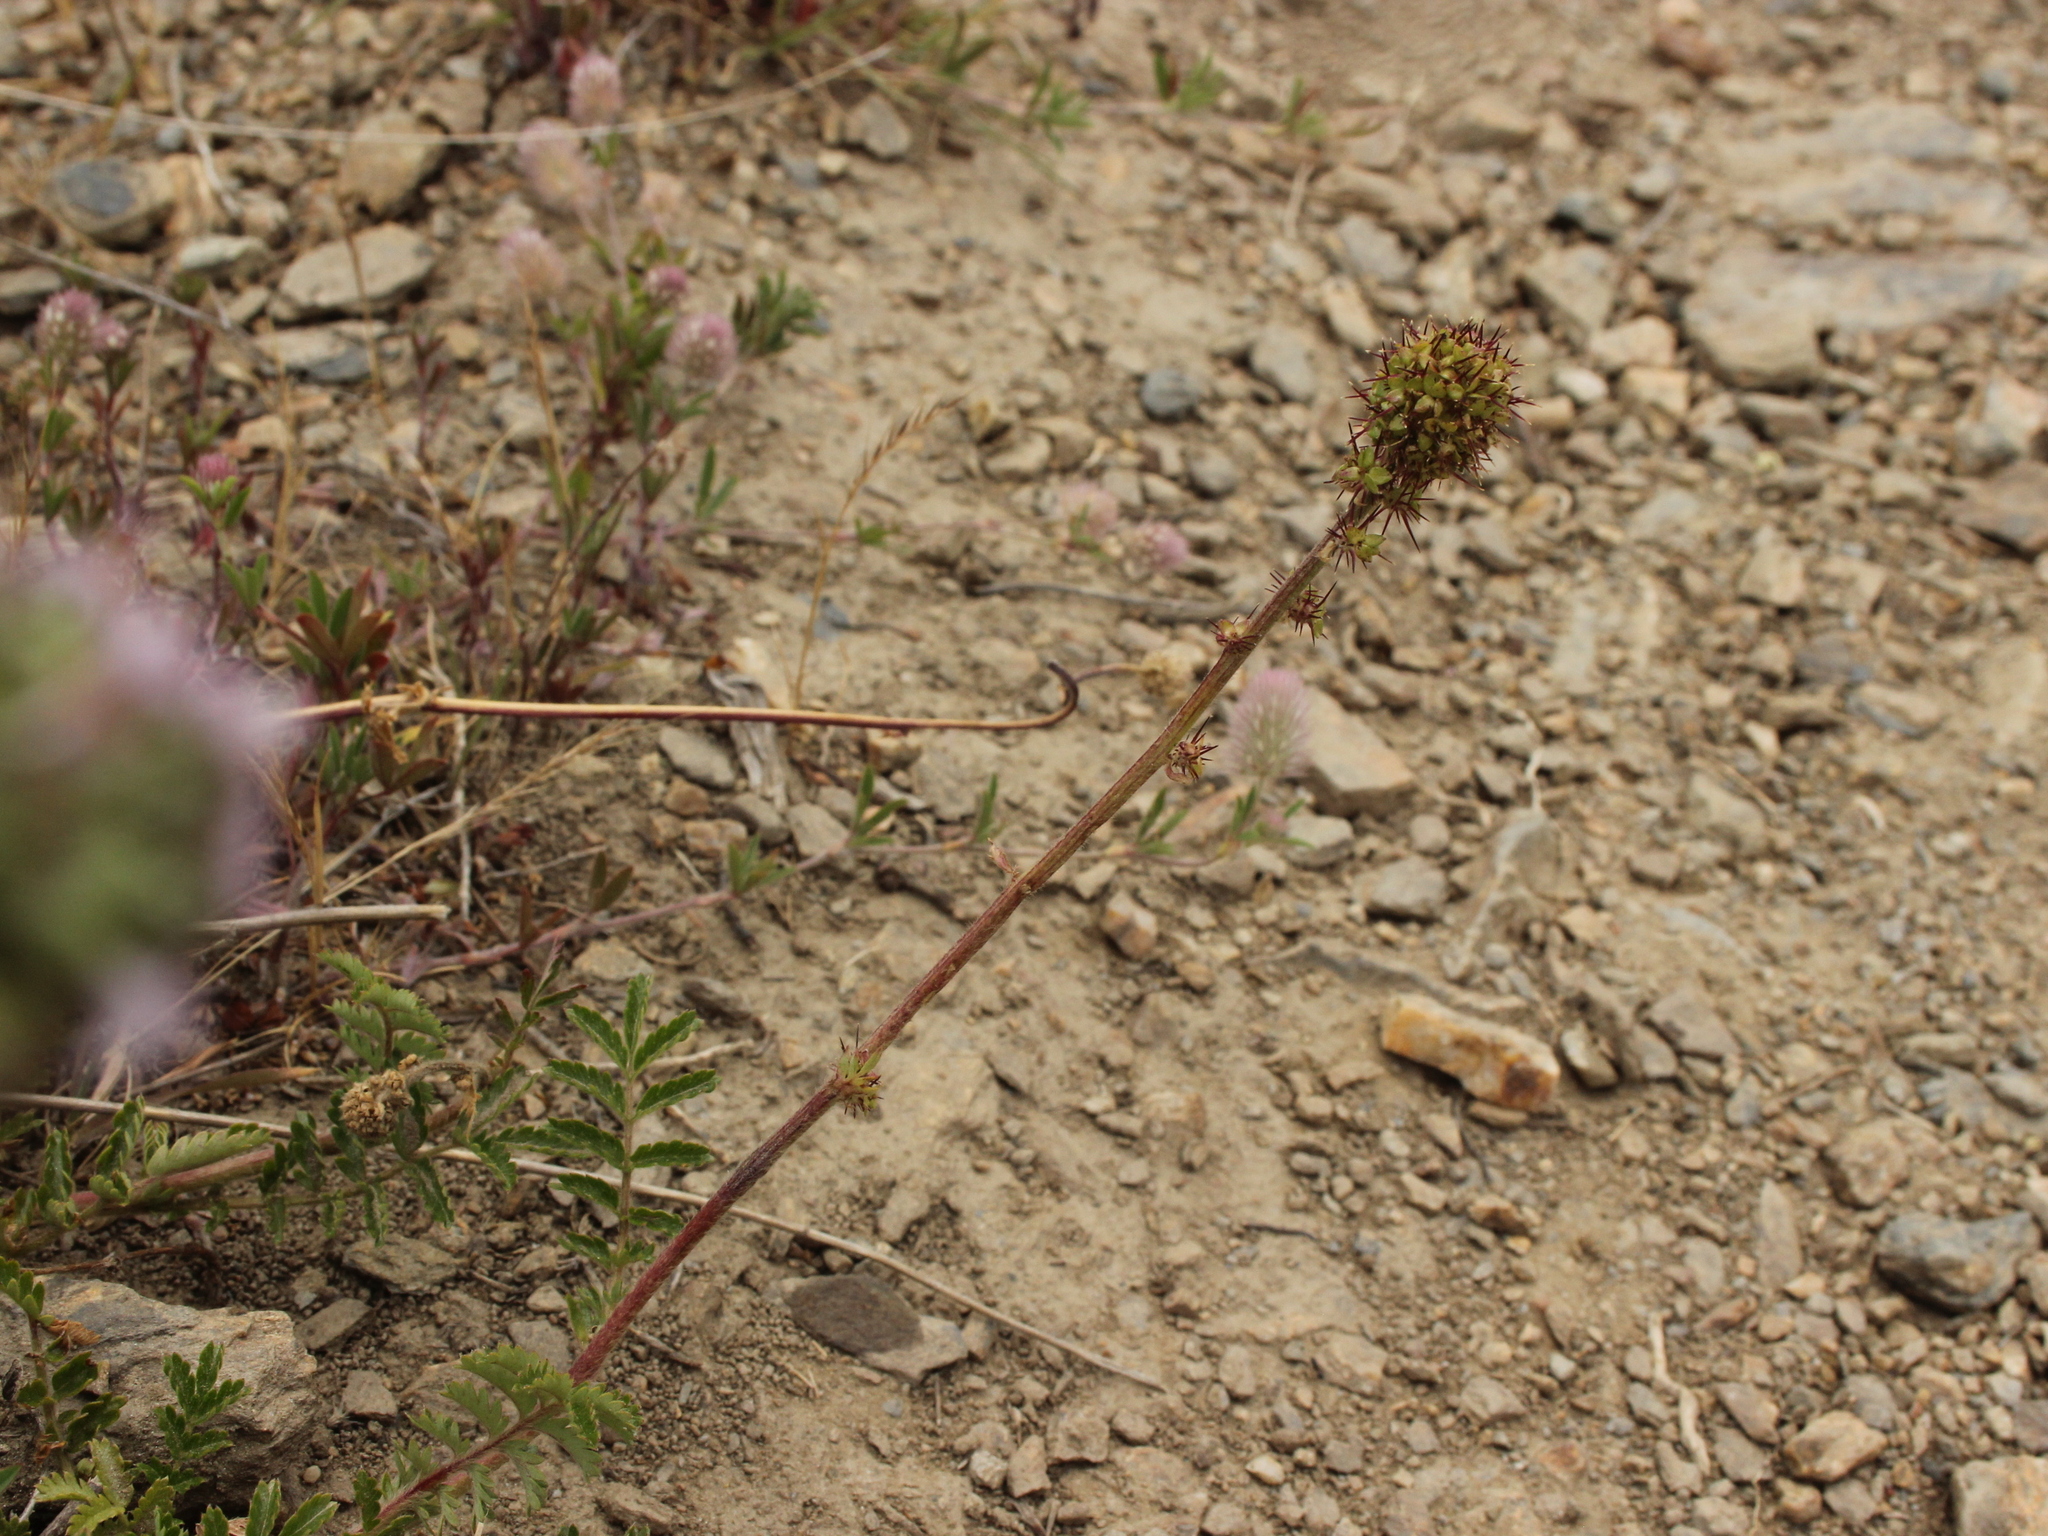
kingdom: Plantae
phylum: Tracheophyta
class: Magnoliopsida
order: Rosales
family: Rosaceae
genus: Acaena
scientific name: Acaena
